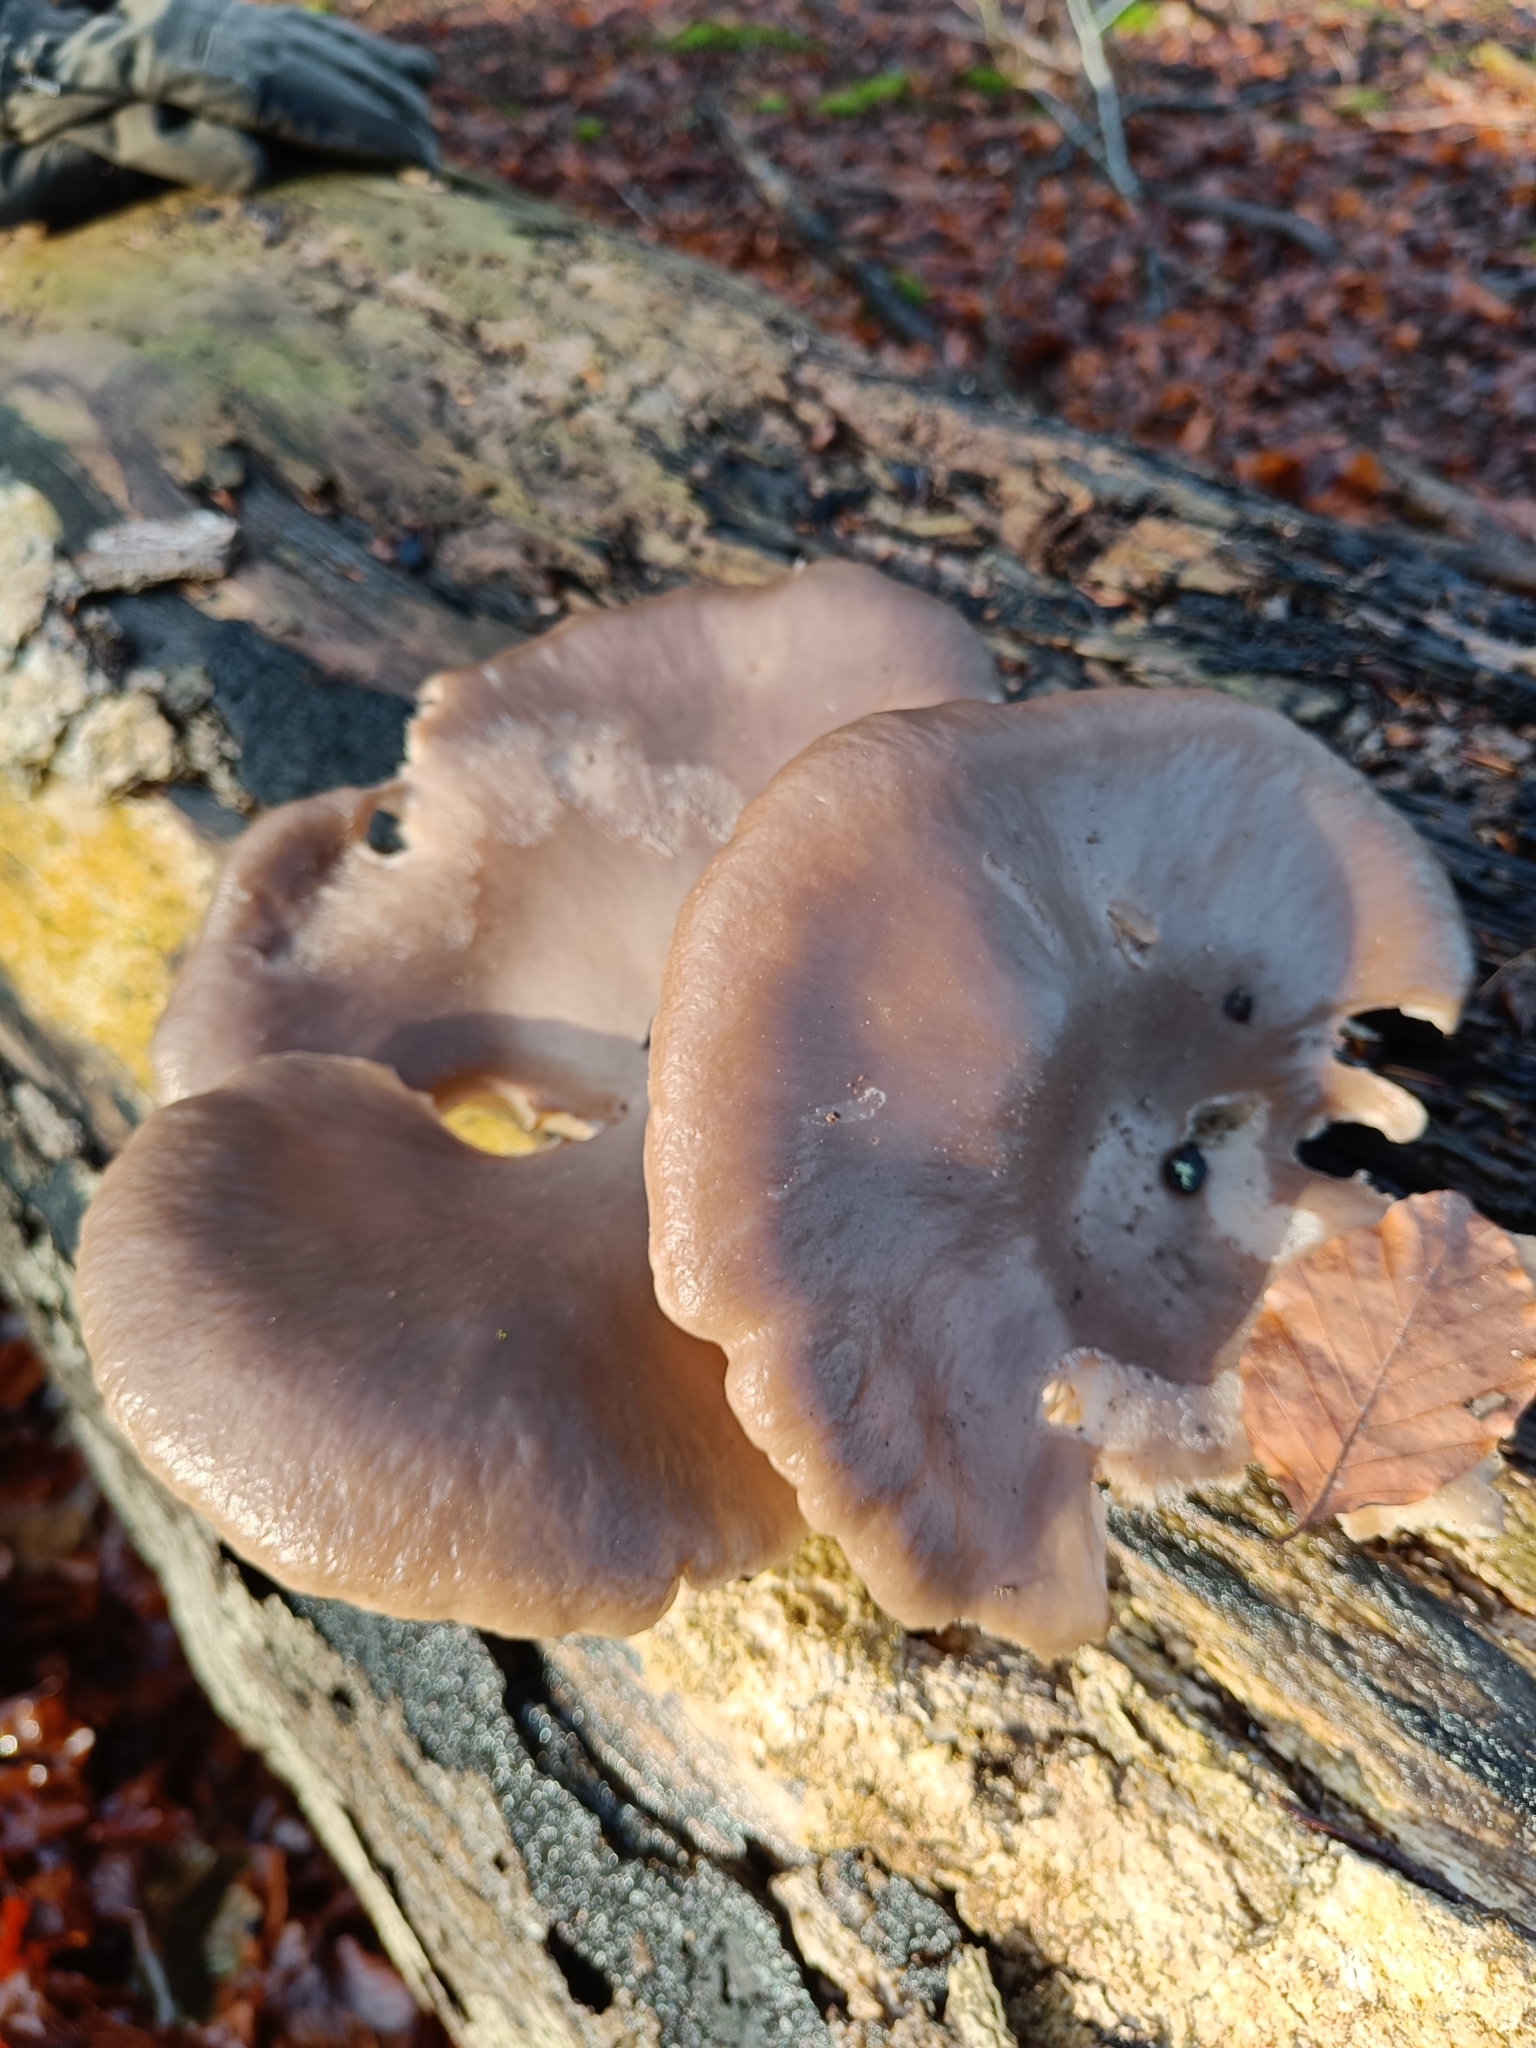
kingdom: Fungi
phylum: Basidiomycota
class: Agaricomycetes
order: Agaricales
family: Pleurotaceae
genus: Pleurotus
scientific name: Pleurotus ostreatus
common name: Oyster mushroom
